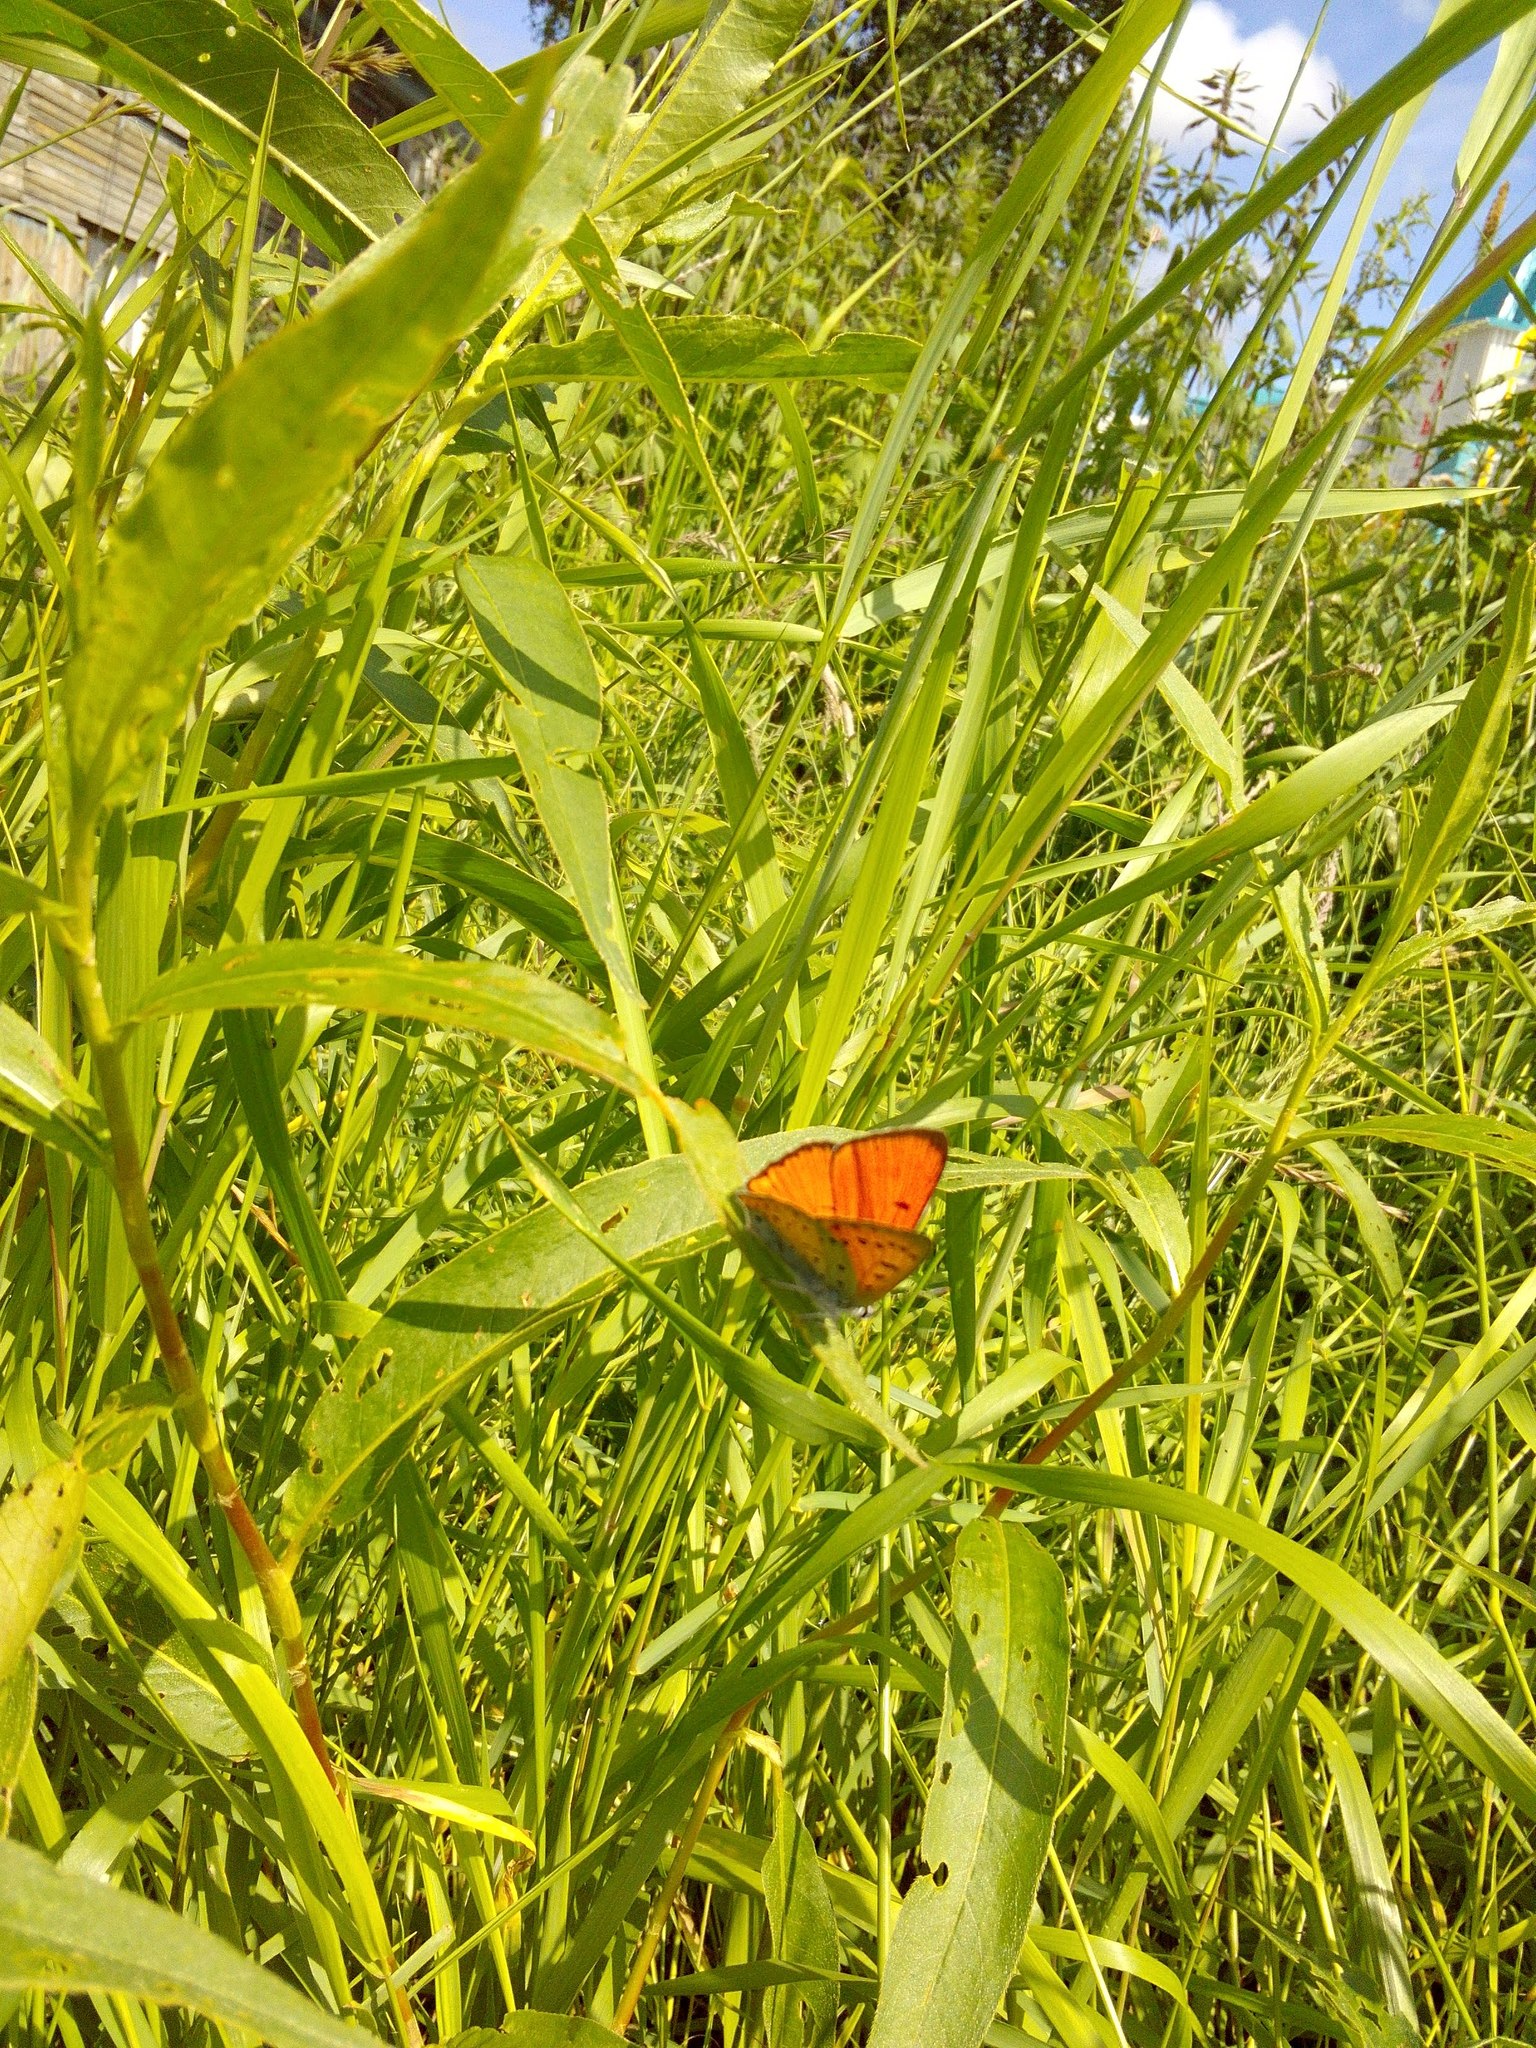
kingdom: Animalia
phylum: Arthropoda
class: Insecta
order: Lepidoptera
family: Lycaenidae
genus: Lycaena
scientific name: Lycaena dispar
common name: Large copper
